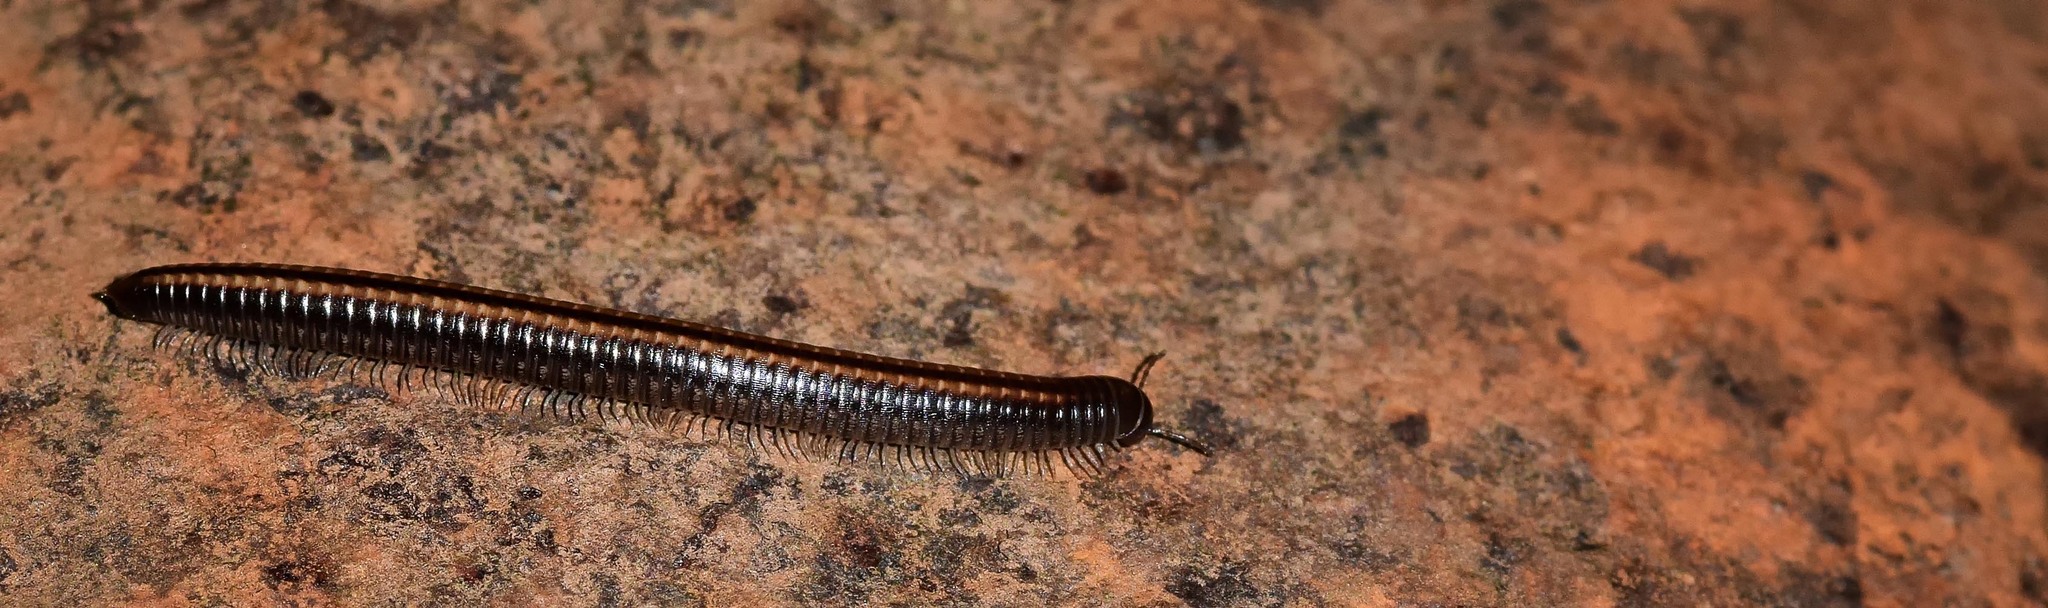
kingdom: Animalia
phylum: Arthropoda
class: Diplopoda
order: Julida
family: Julidae
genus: Ommatoiulus
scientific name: Ommatoiulus sabulosus
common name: Striped millipede
